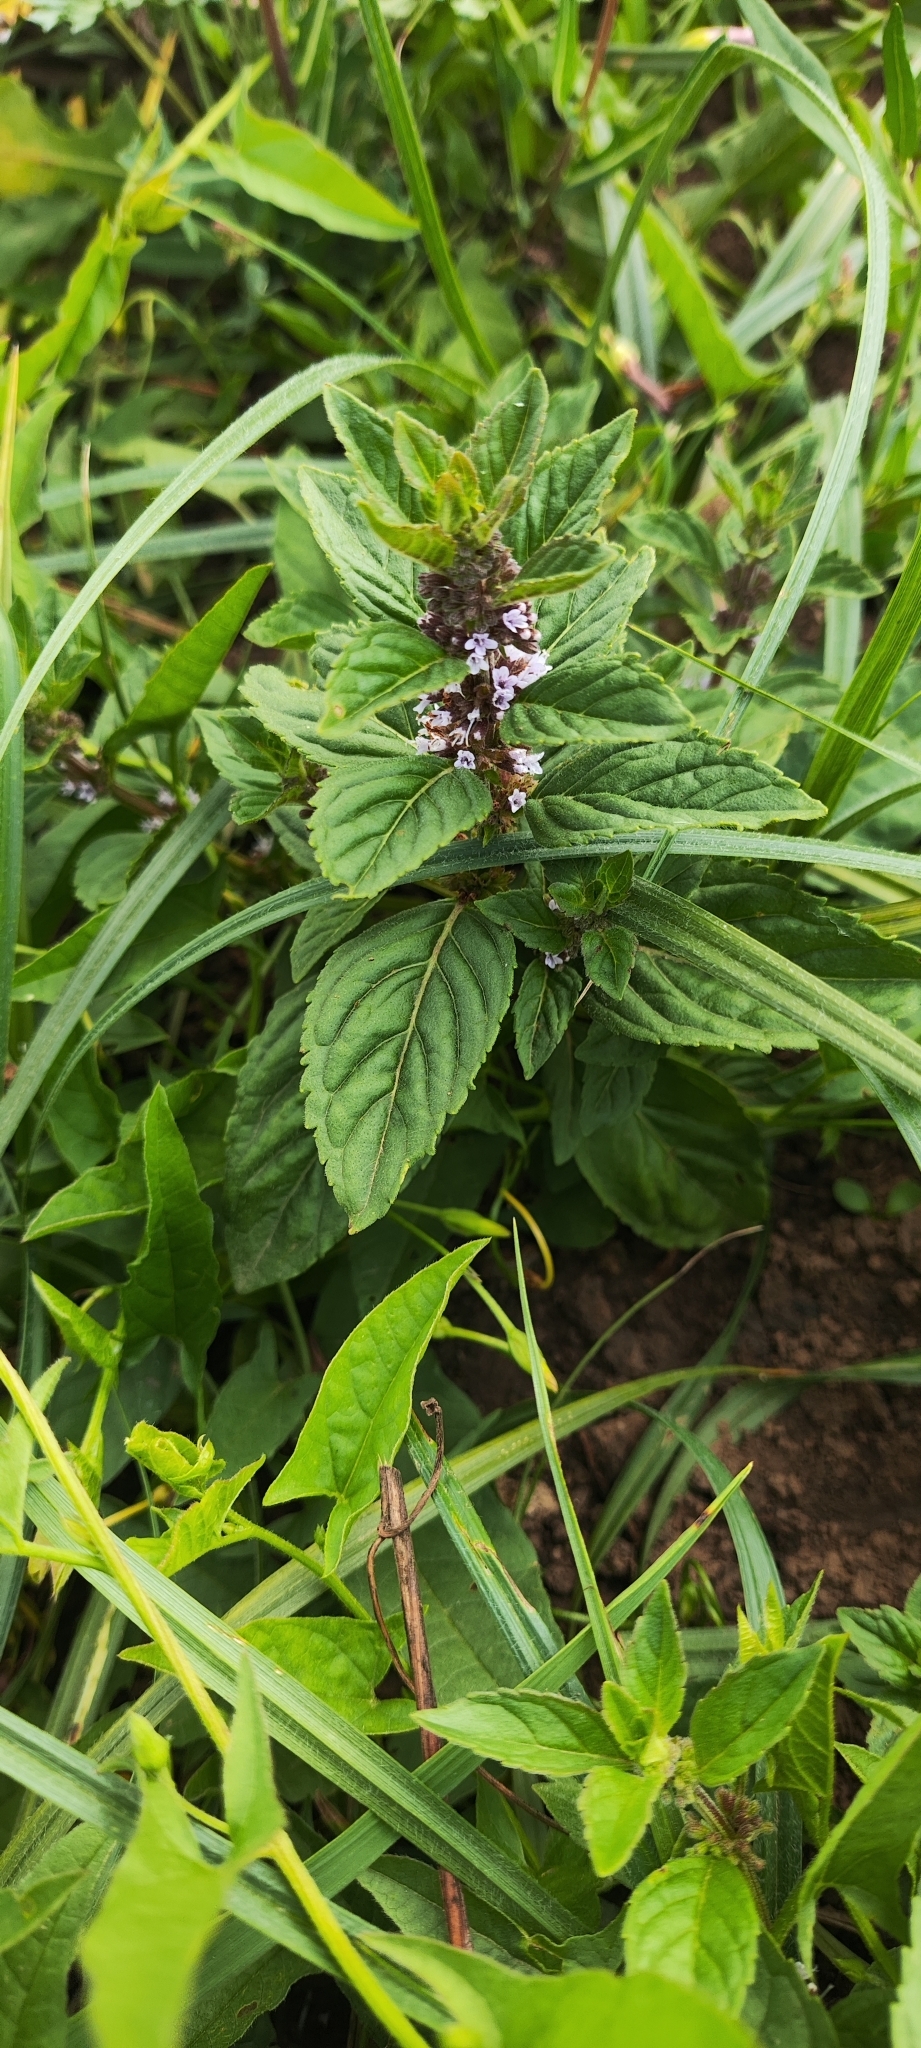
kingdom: Plantae
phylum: Tracheophyta
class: Magnoliopsida
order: Lamiales
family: Lamiaceae
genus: Mentha
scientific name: Mentha arvensis
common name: Corn mint
